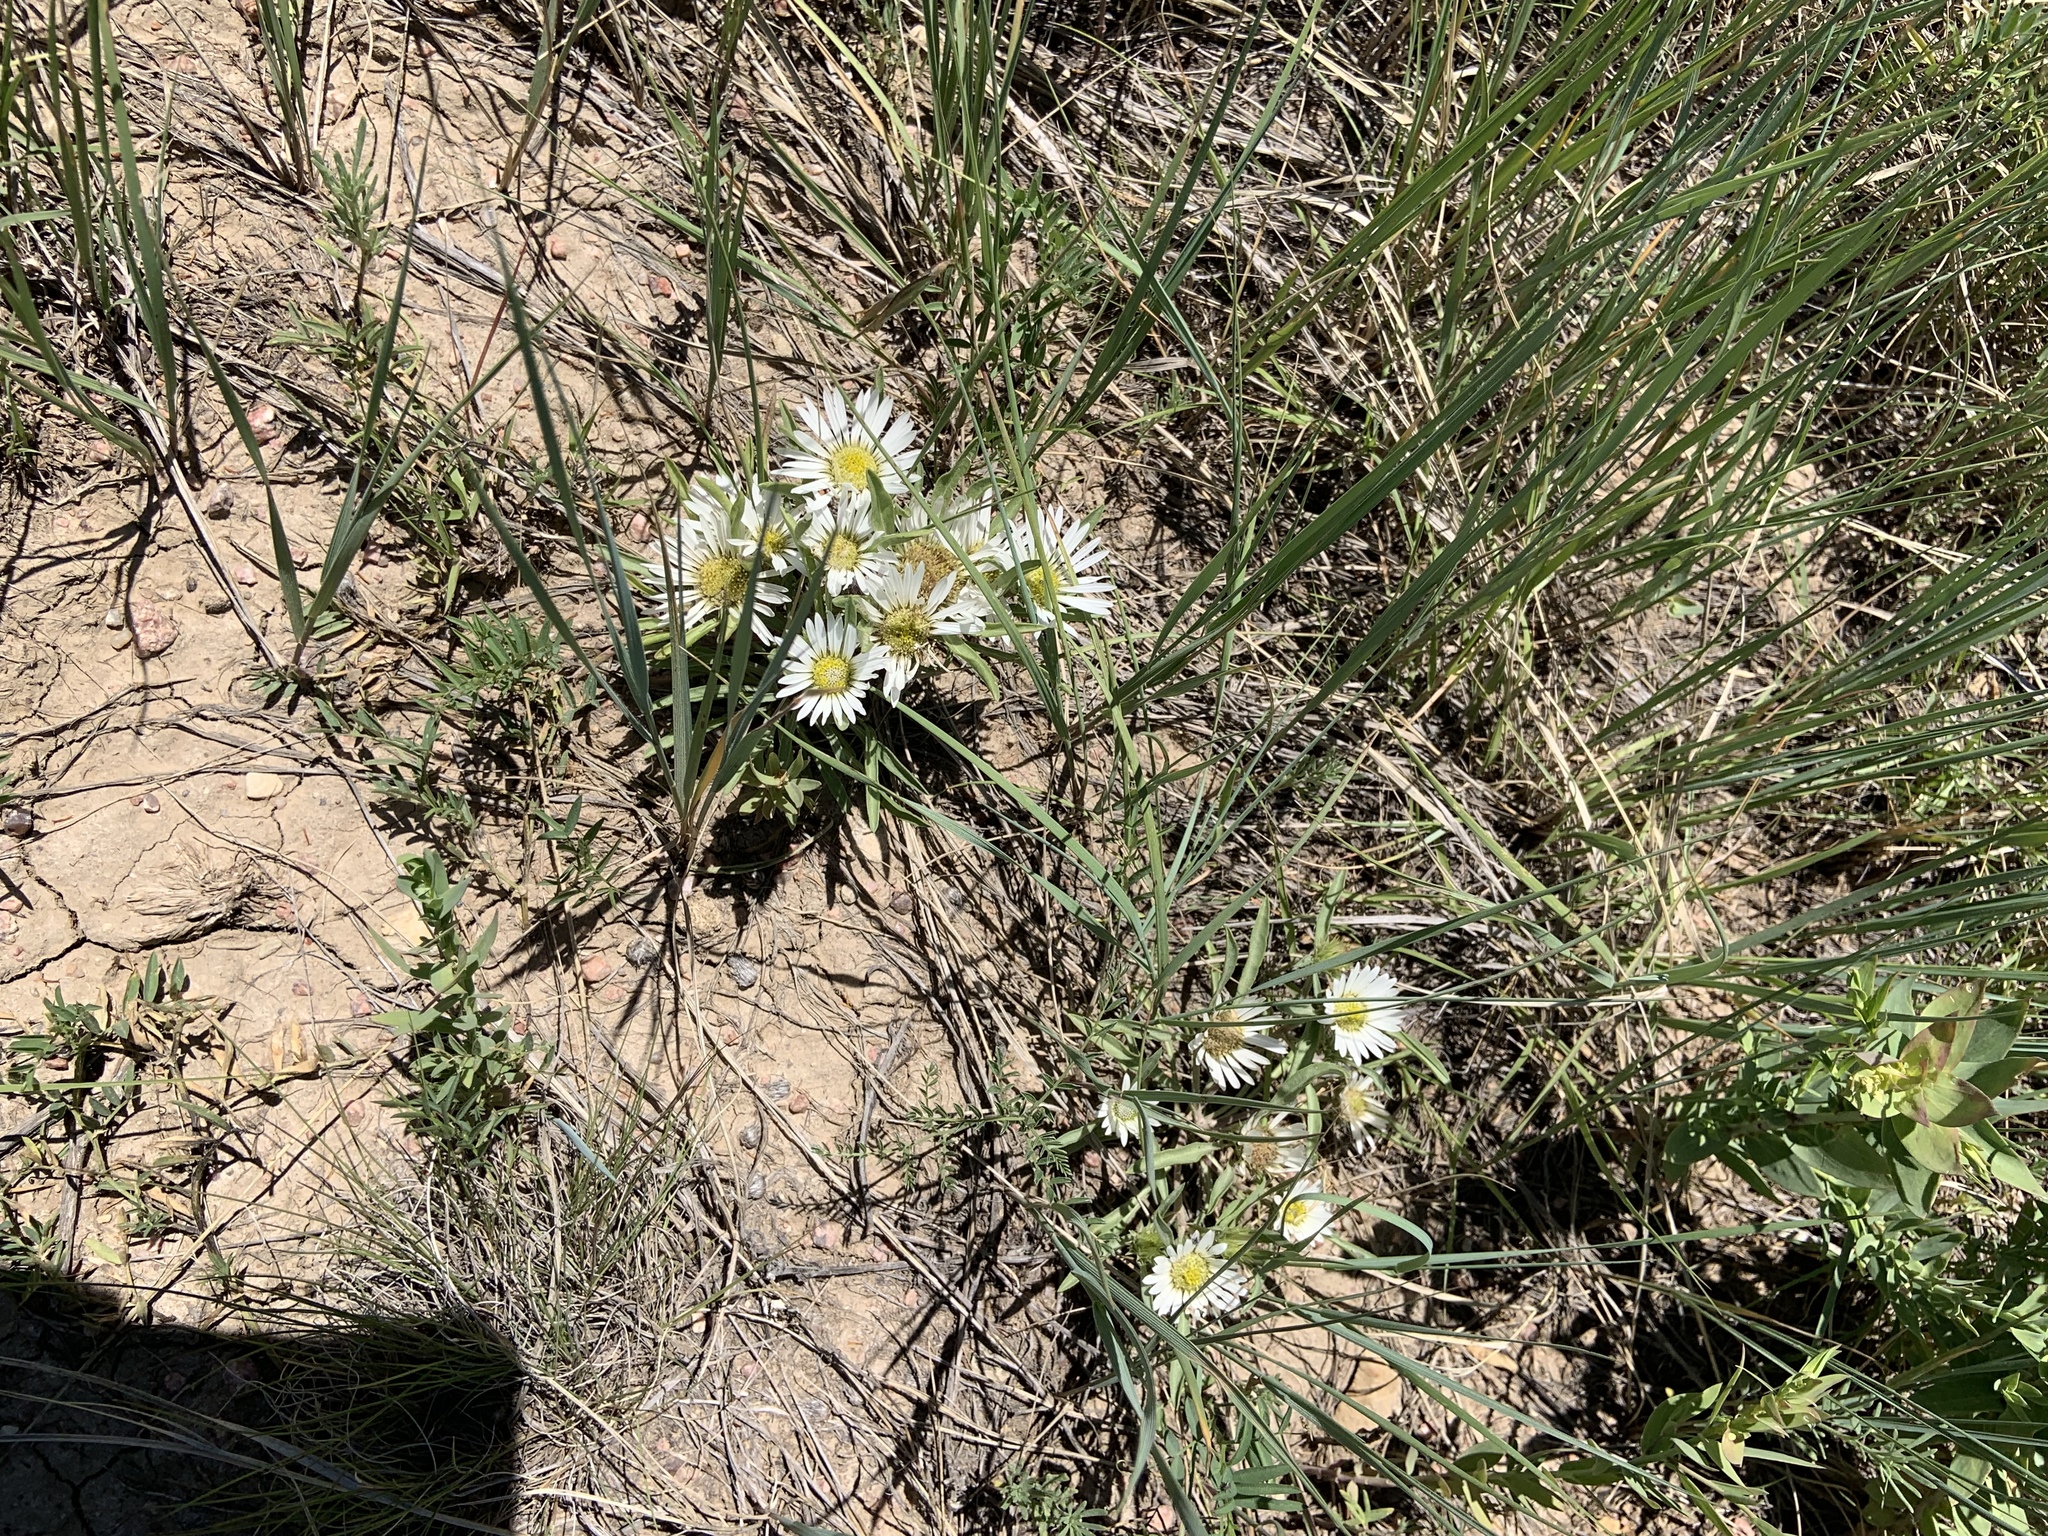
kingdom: Plantae
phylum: Tracheophyta
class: Magnoliopsida
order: Asterales
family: Asteraceae
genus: Townsendia
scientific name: Townsendia grandiflora
